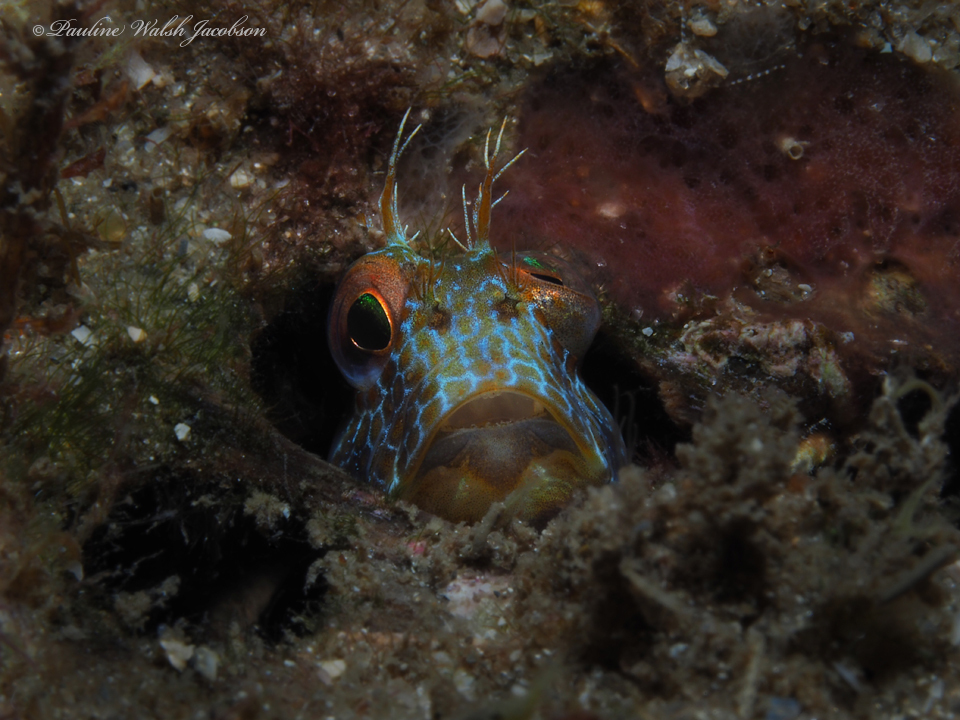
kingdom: Animalia
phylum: Chordata
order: Perciformes
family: Blenniidae
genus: Parablennius
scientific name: Parablennius marmoreus
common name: Seaweed blenny
